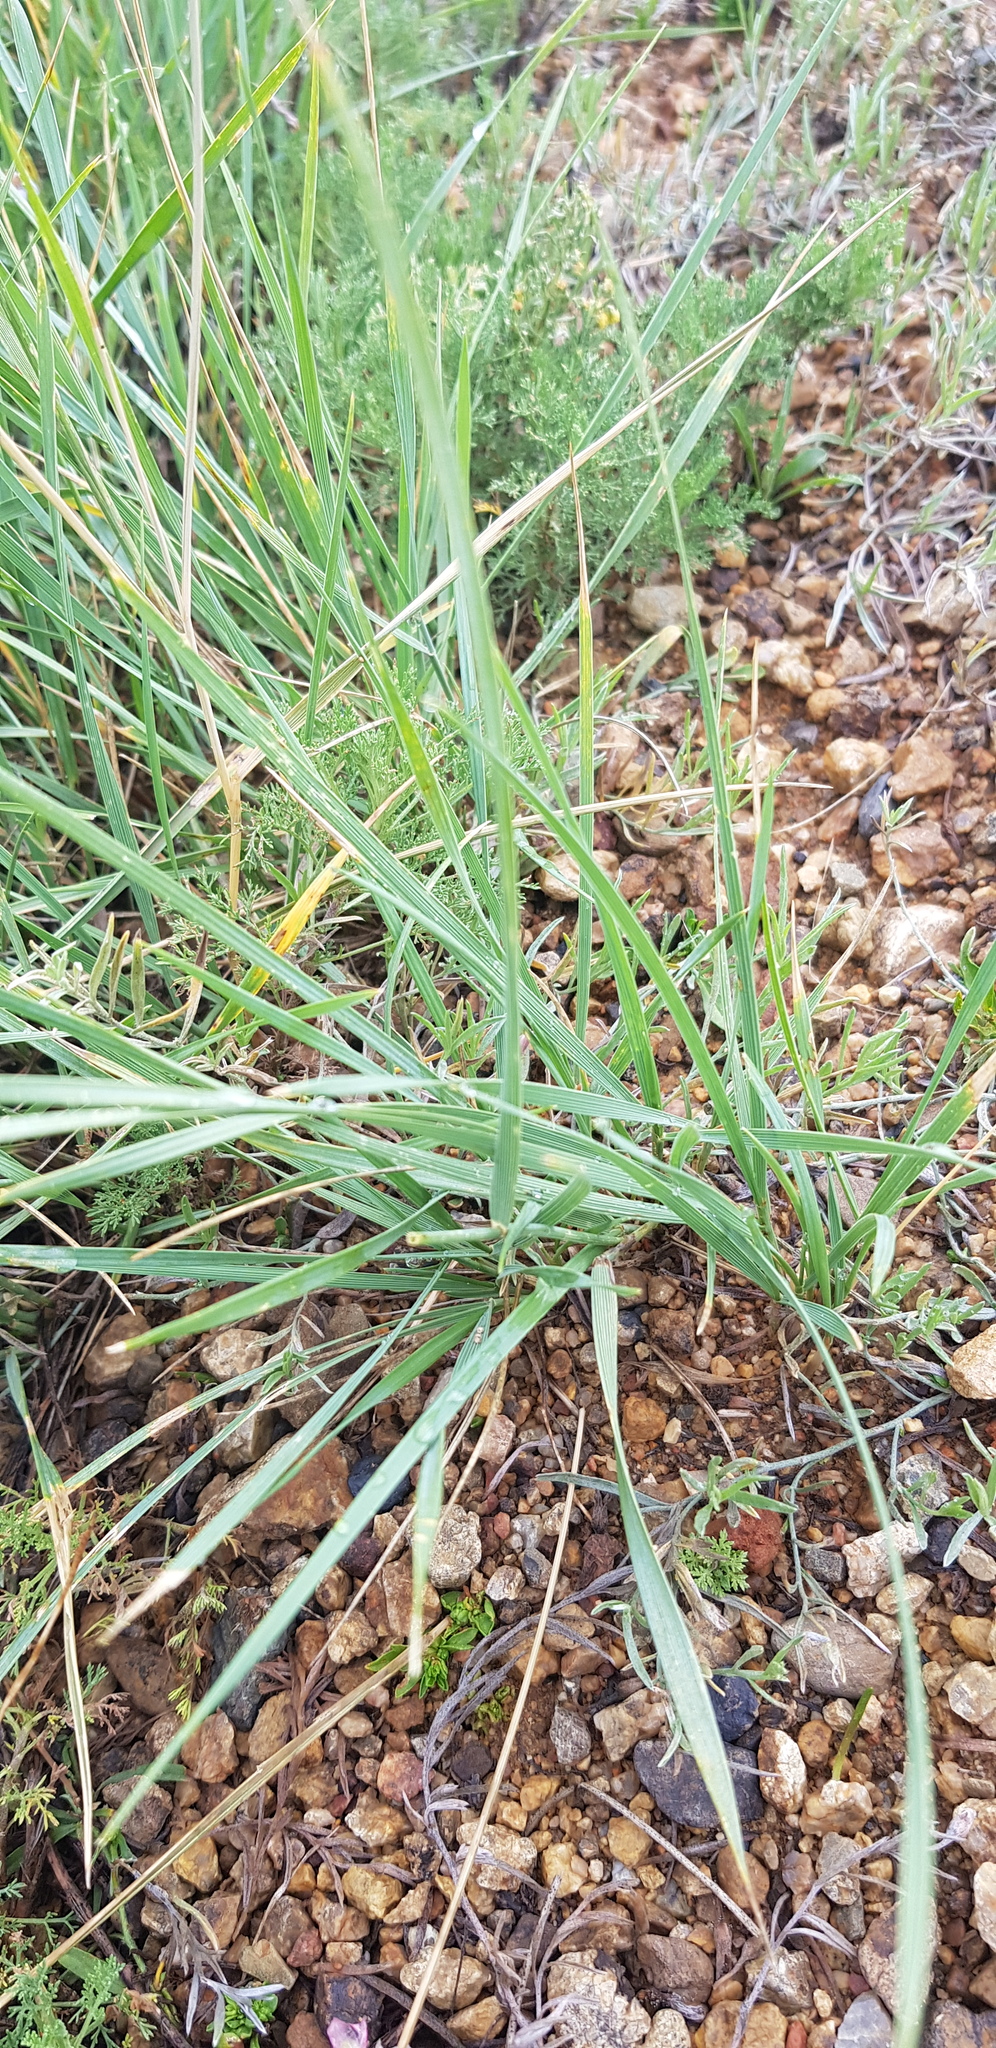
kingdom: Plantae
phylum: Tracheophyta
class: Liliopsida
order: Poales
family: Poaceae
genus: Leymus
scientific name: Leymus chinensis
